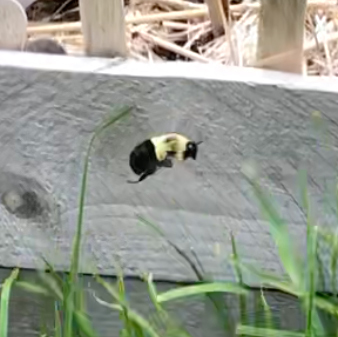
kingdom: Animalia
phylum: Arthropoda
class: Insecta
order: Hymenoptera
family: Apidae
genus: Bombus
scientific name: Bombus impatiens
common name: Common eastern bumble bee
